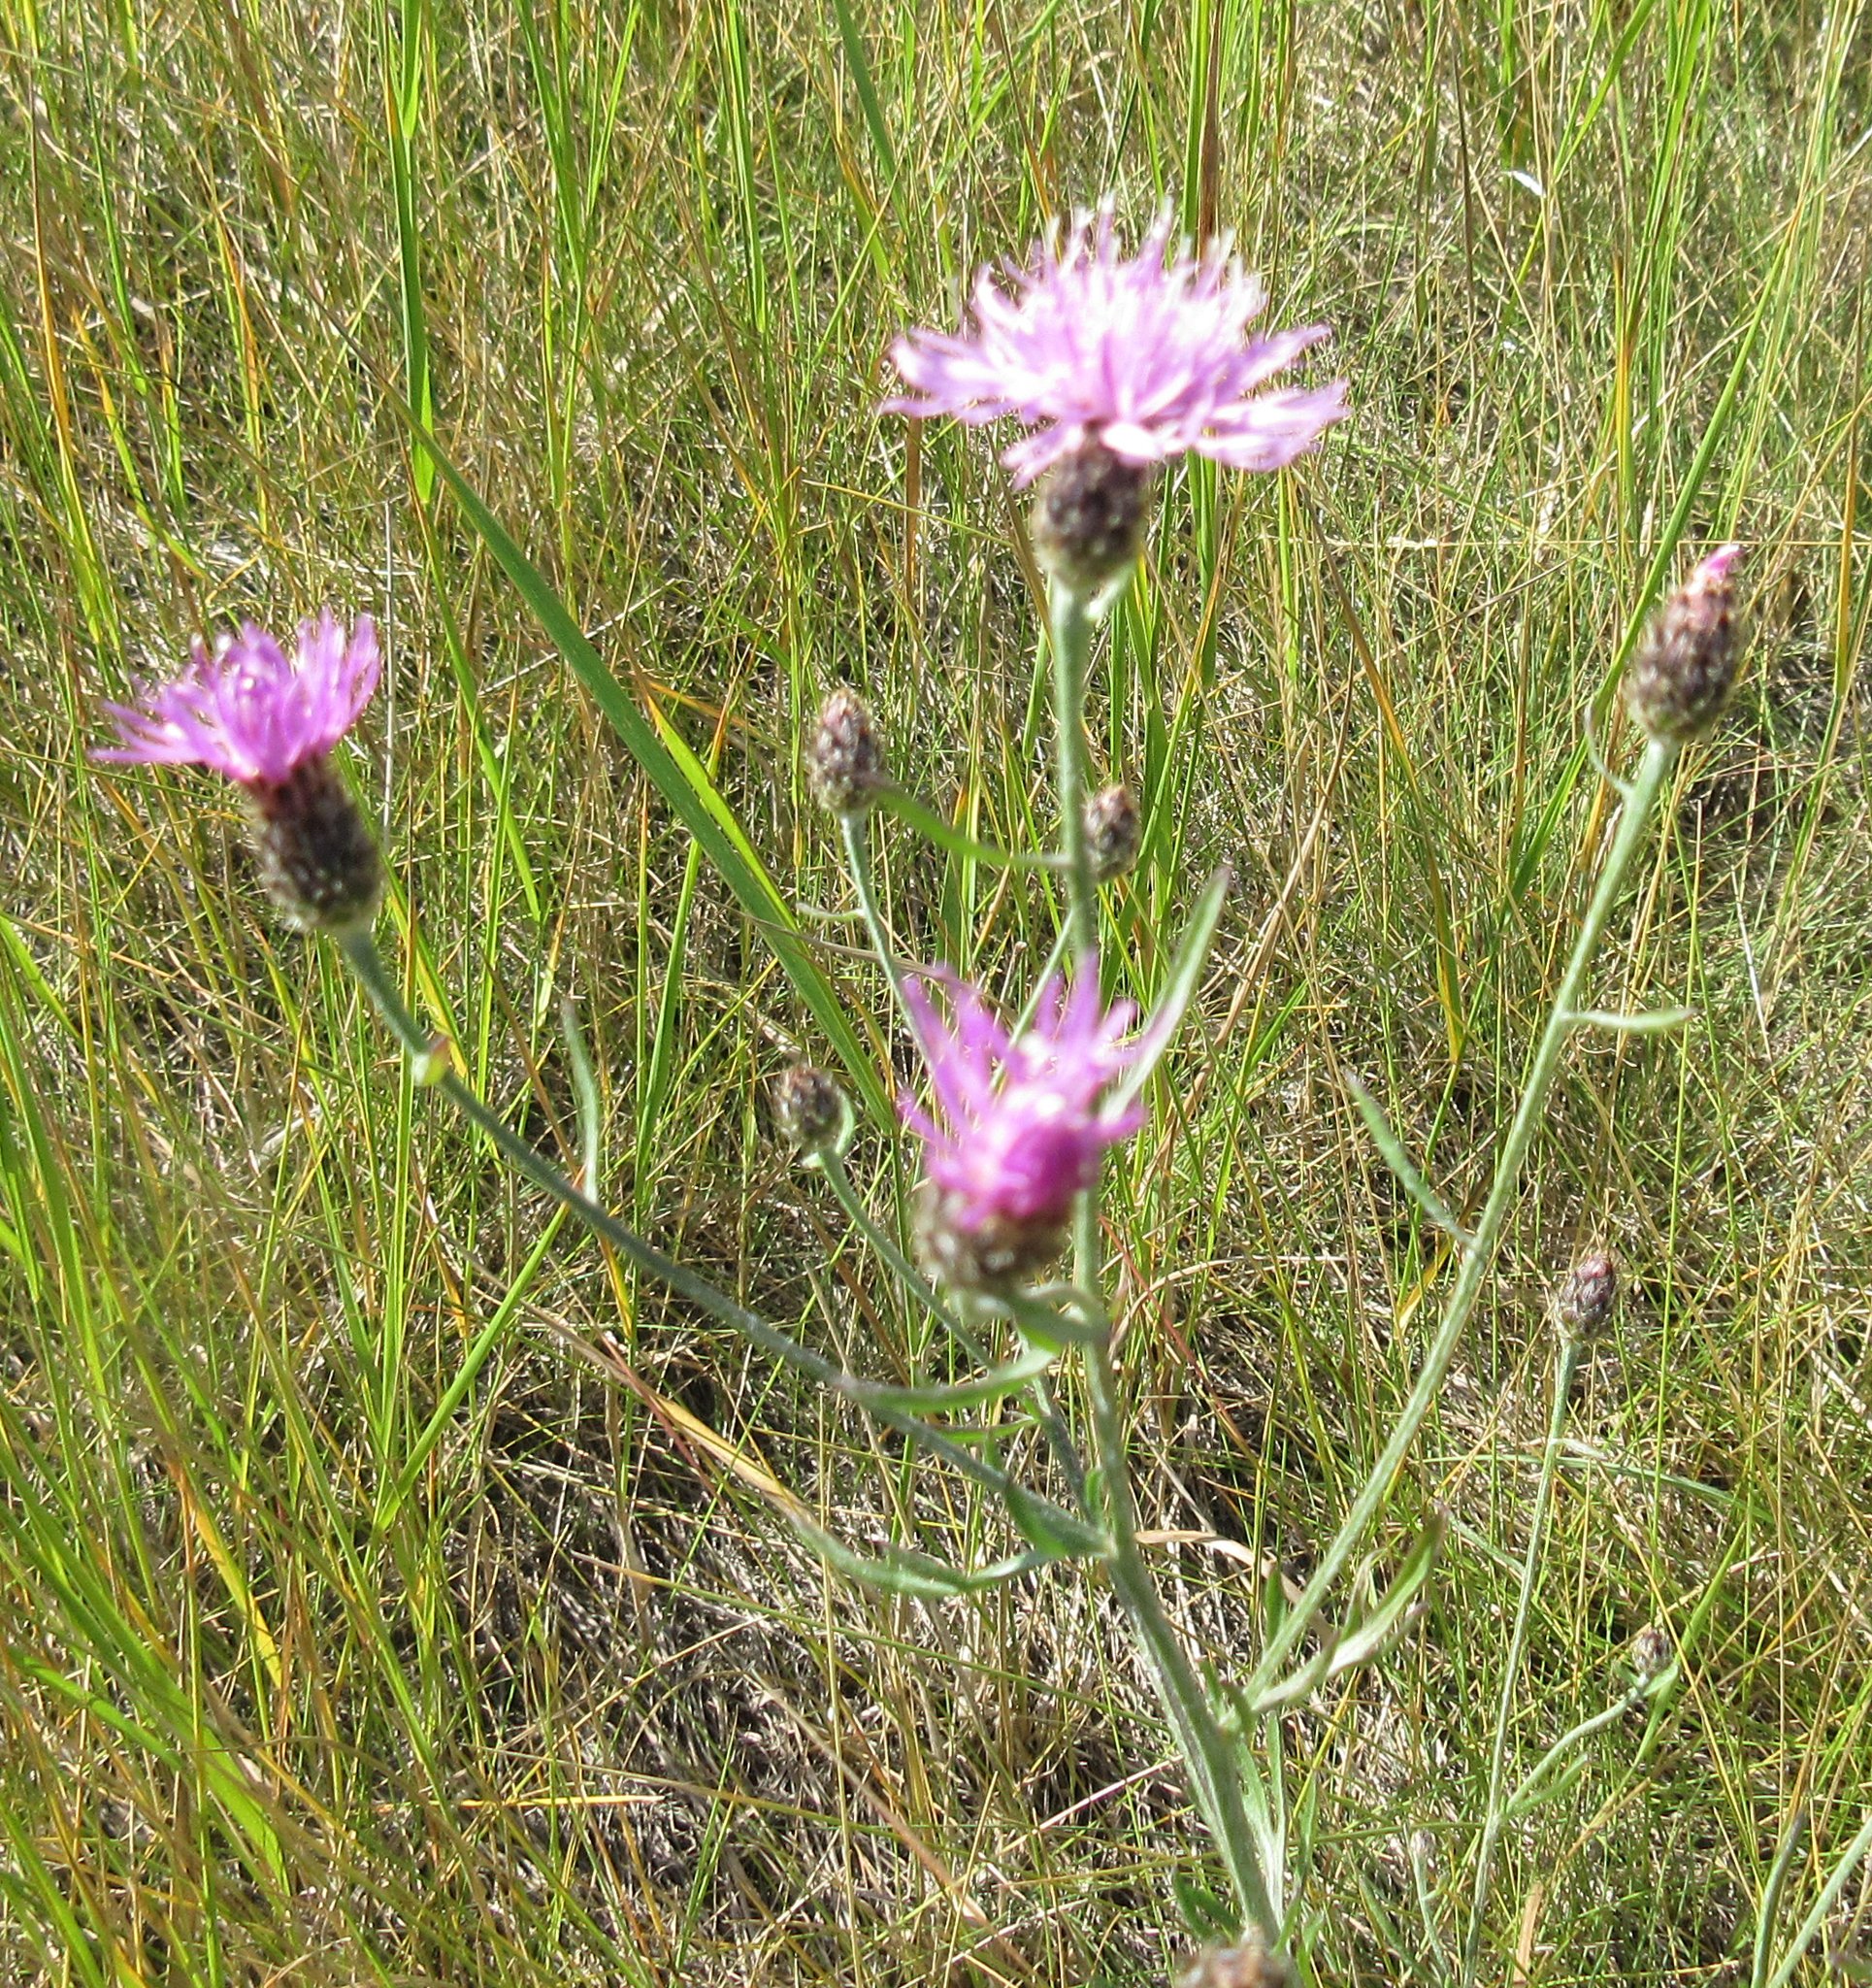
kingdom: Plantae
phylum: Tracheophyta
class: Magnoliopsida
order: Asterales
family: Asteraceae
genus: Centaurea
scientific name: Centaurea stoebe
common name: Spotted knapweed
